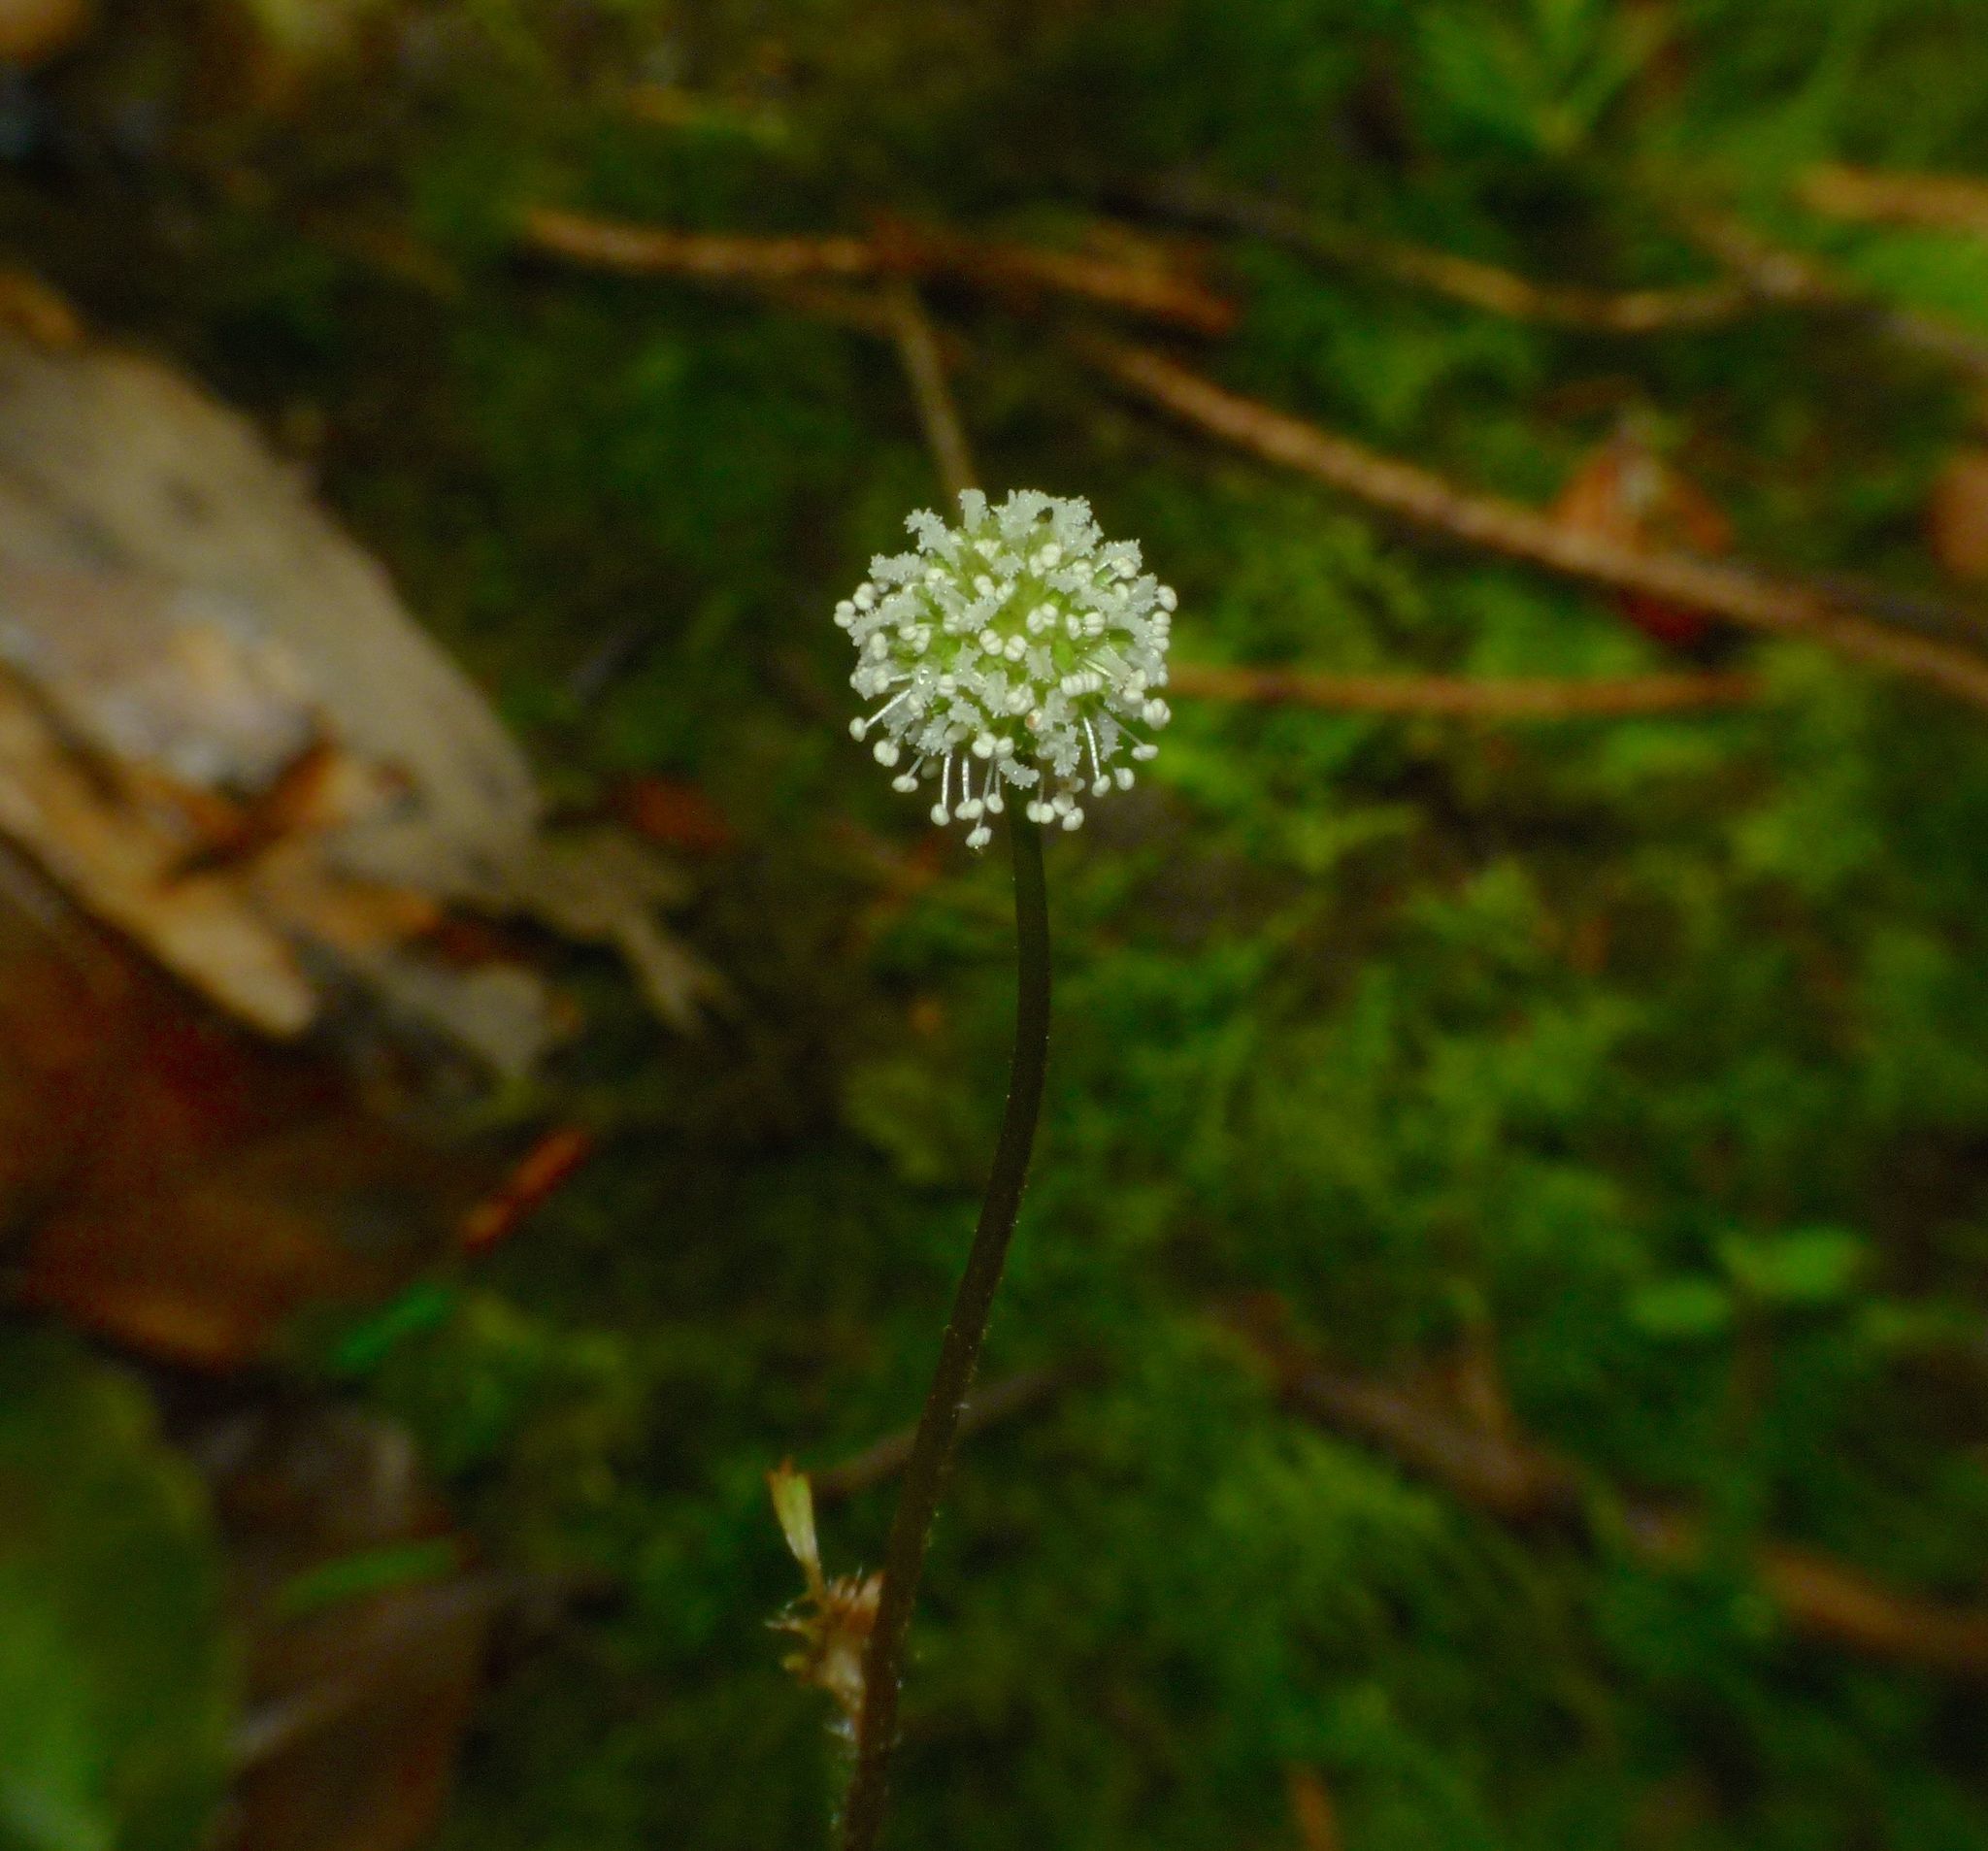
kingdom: Plantae
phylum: Tracheophyta
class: Magnoliopsida
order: Rosales
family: Rosaceae
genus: Acaena
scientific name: Acaena anserinifolia
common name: Bronze pirri-pirri-bur
